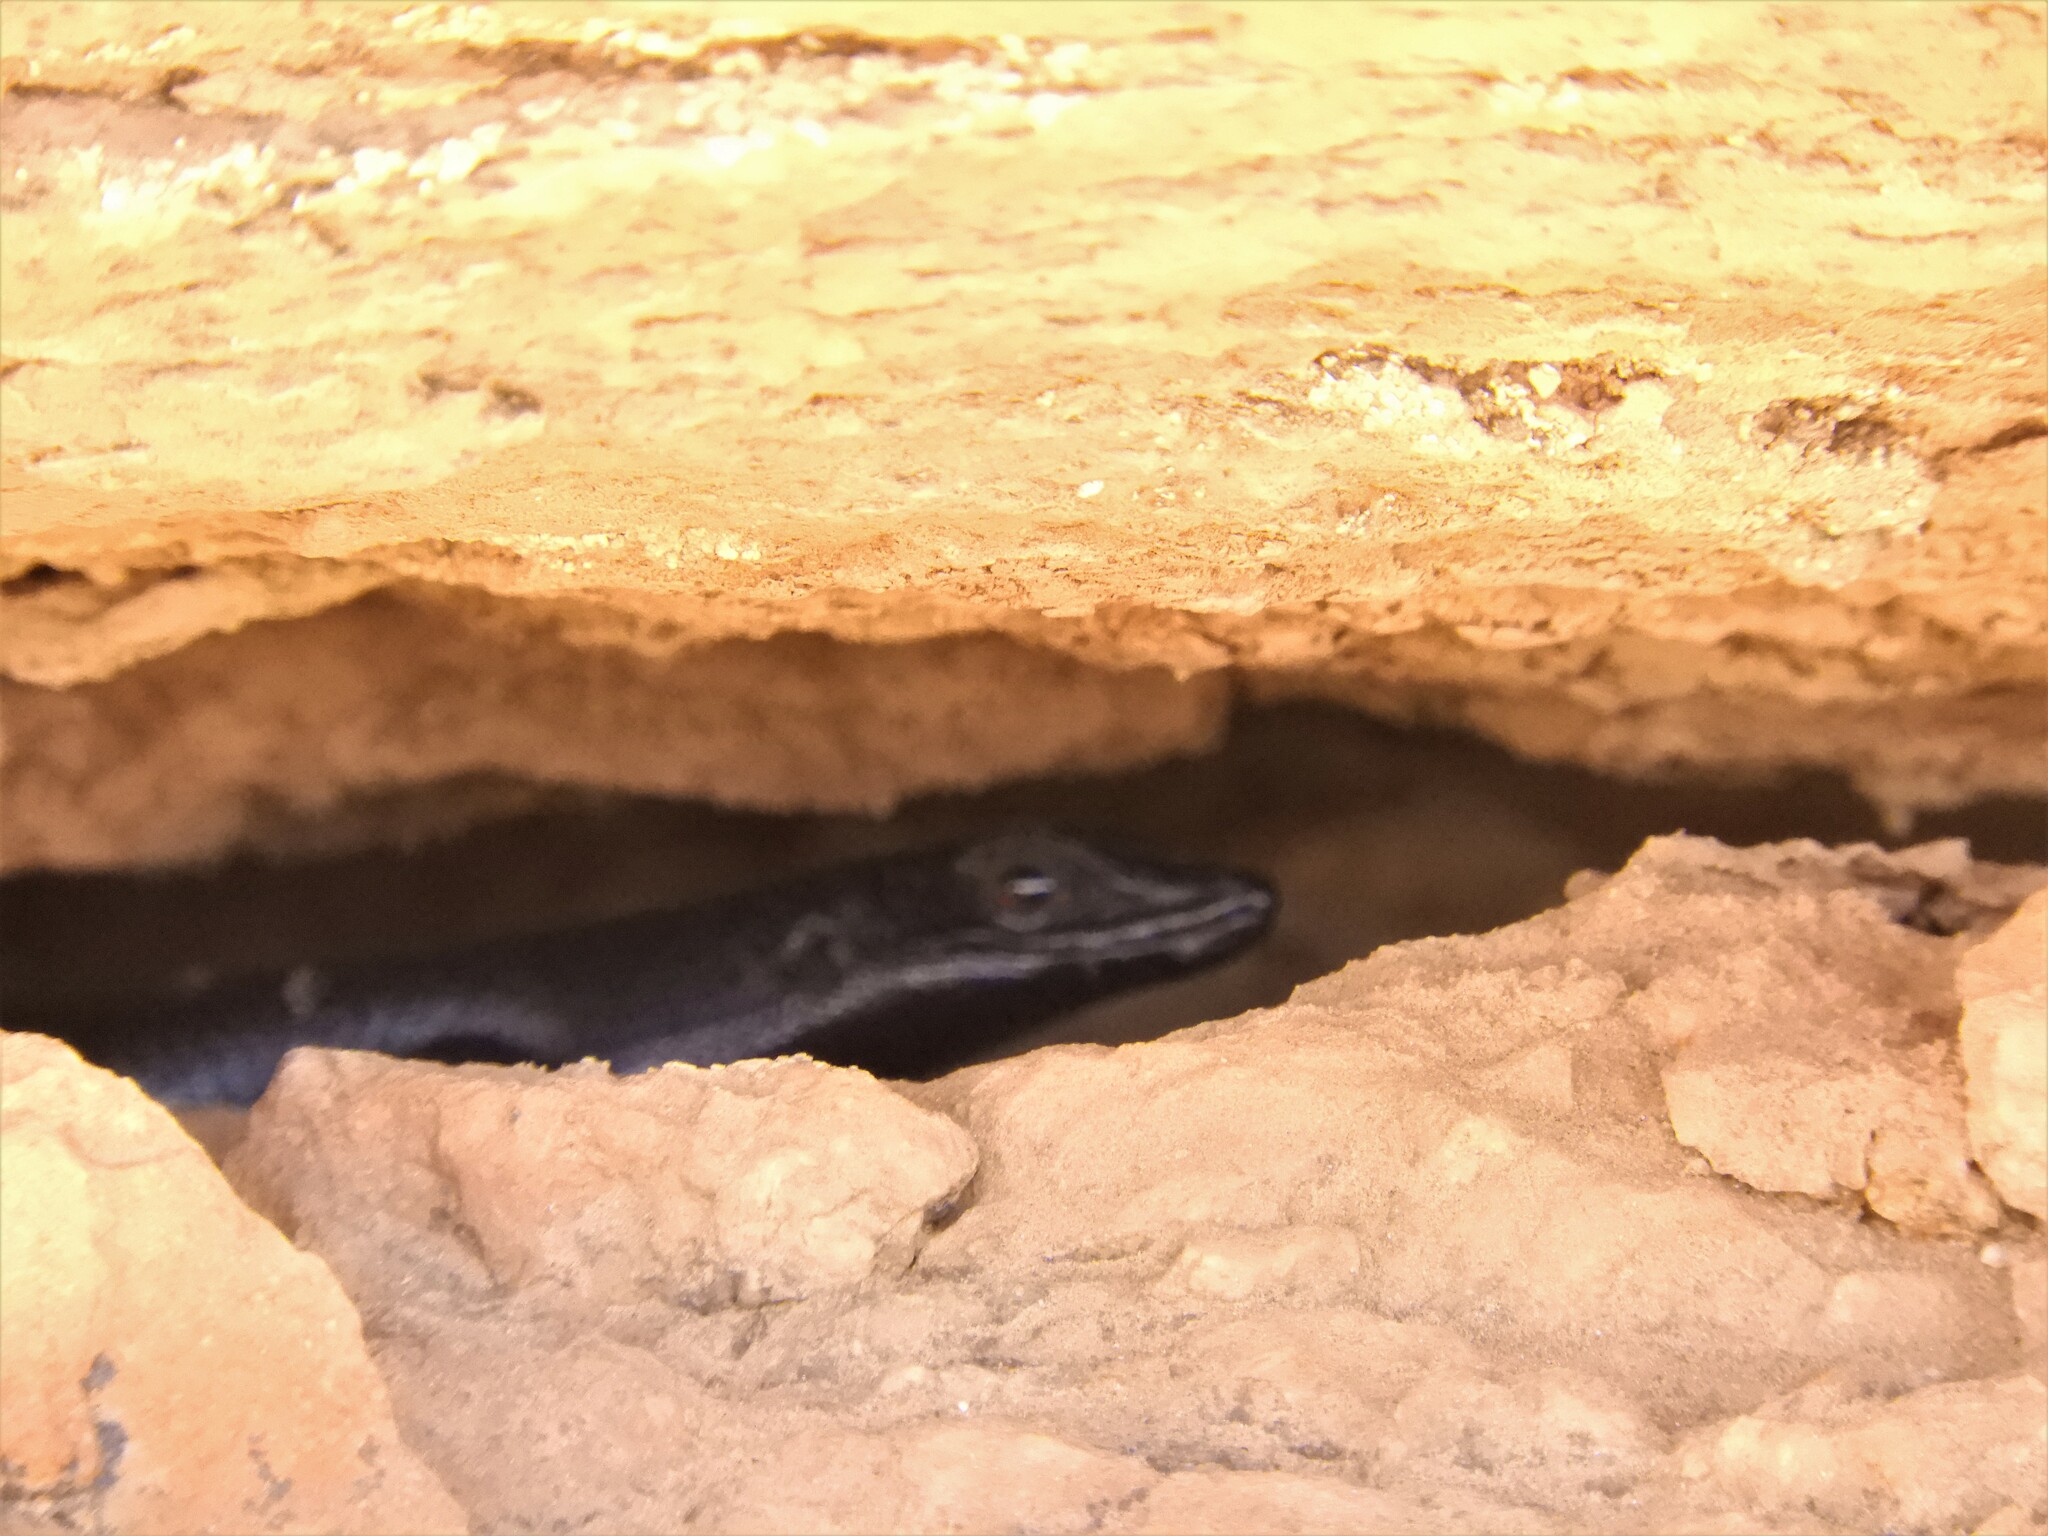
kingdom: Animalia
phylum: Chordata
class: Squamata
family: Scincidae
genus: Trachylepis
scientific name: Trachylepis sulcata
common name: Western rock skink
